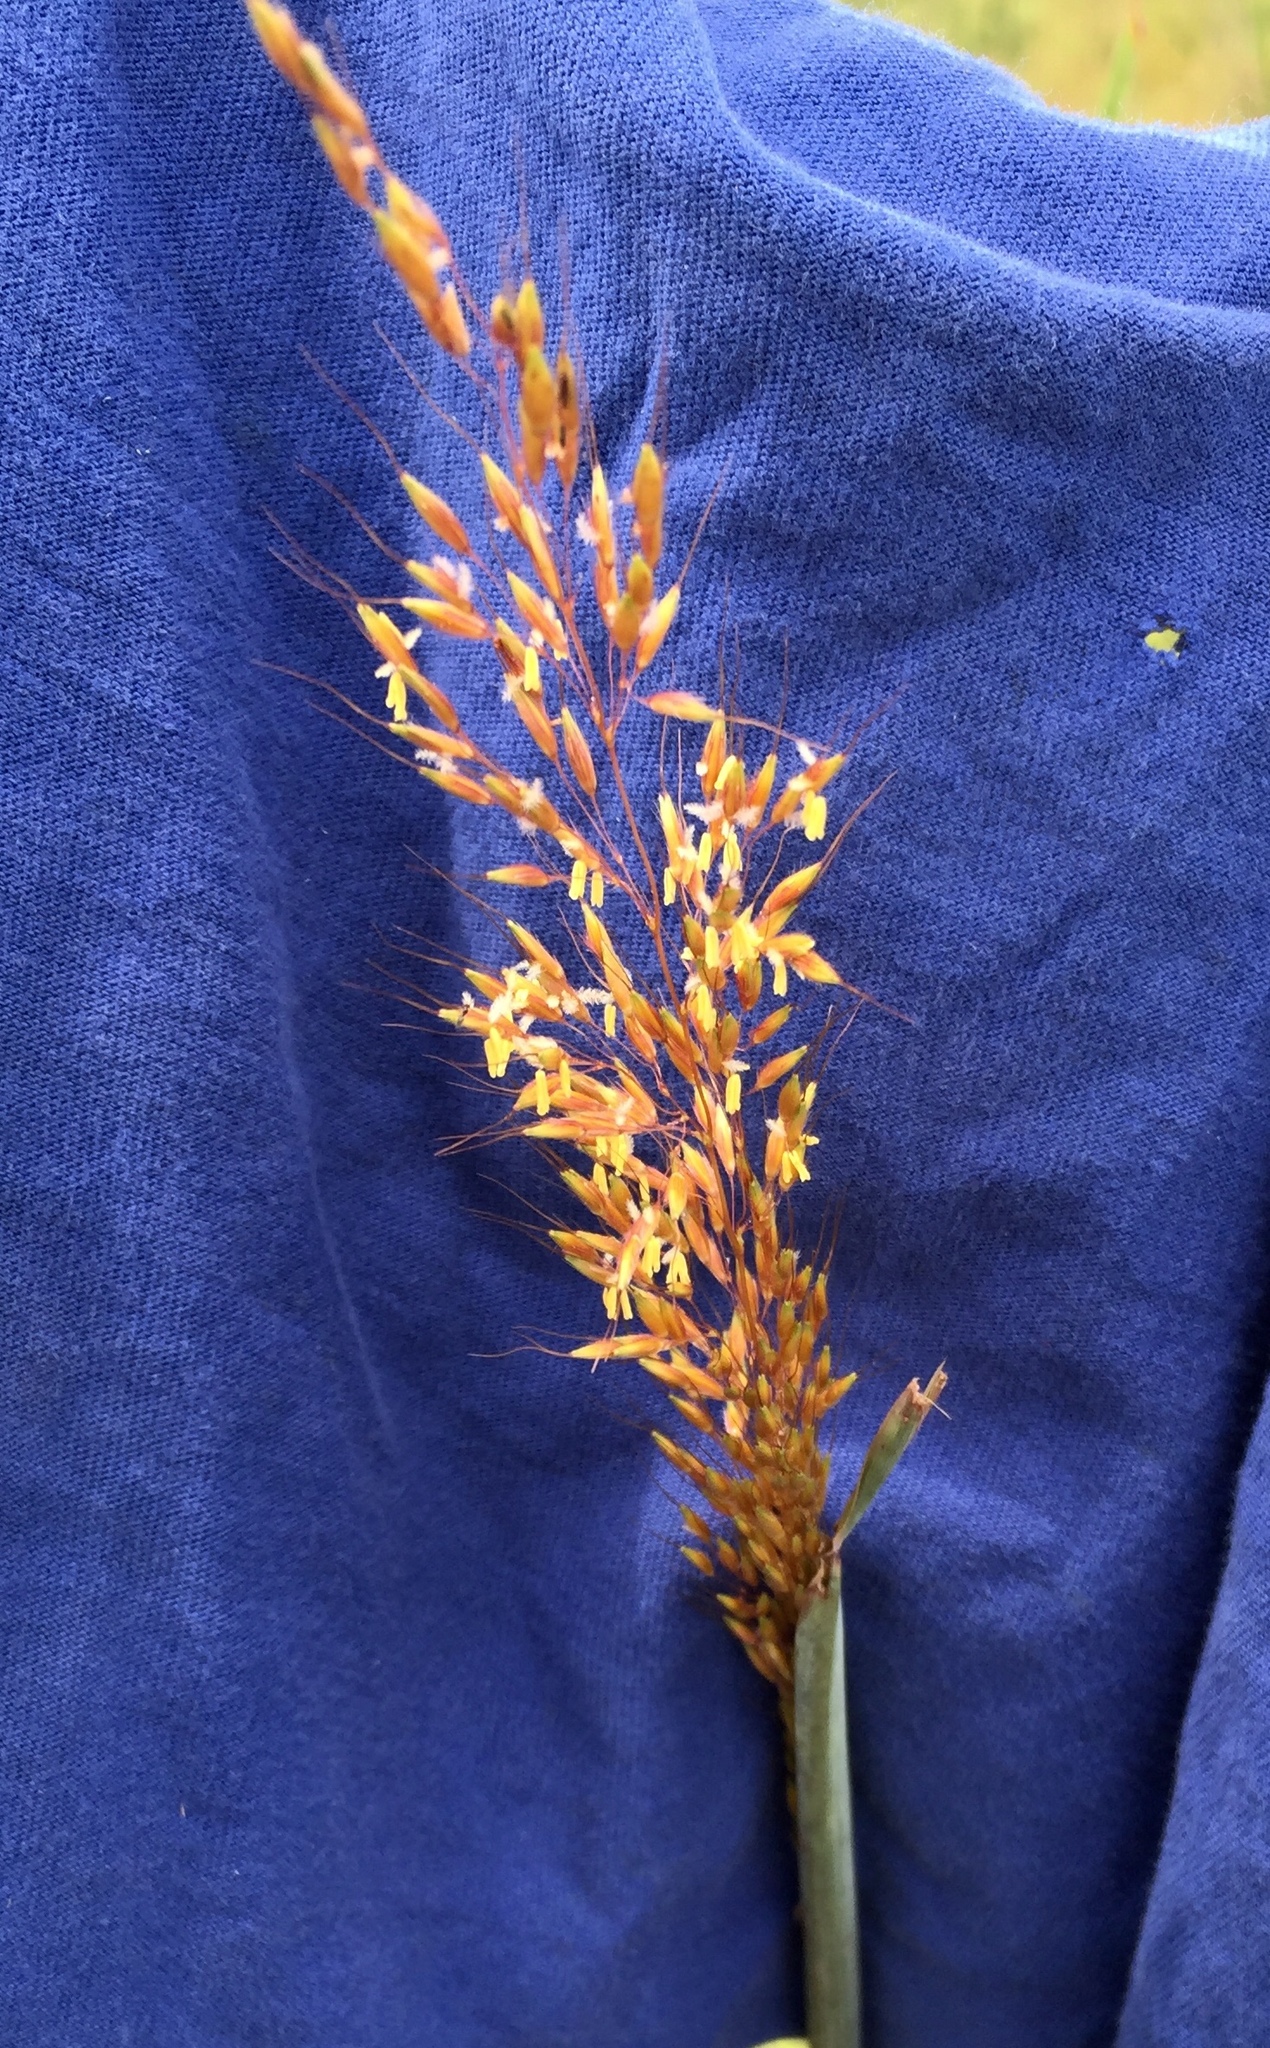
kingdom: Plantae
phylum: Tracheophyta
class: Liliopsida
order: Poales
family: Poaceae
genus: Sorghastrum
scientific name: Sorghastrum nutans
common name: Indian grass
